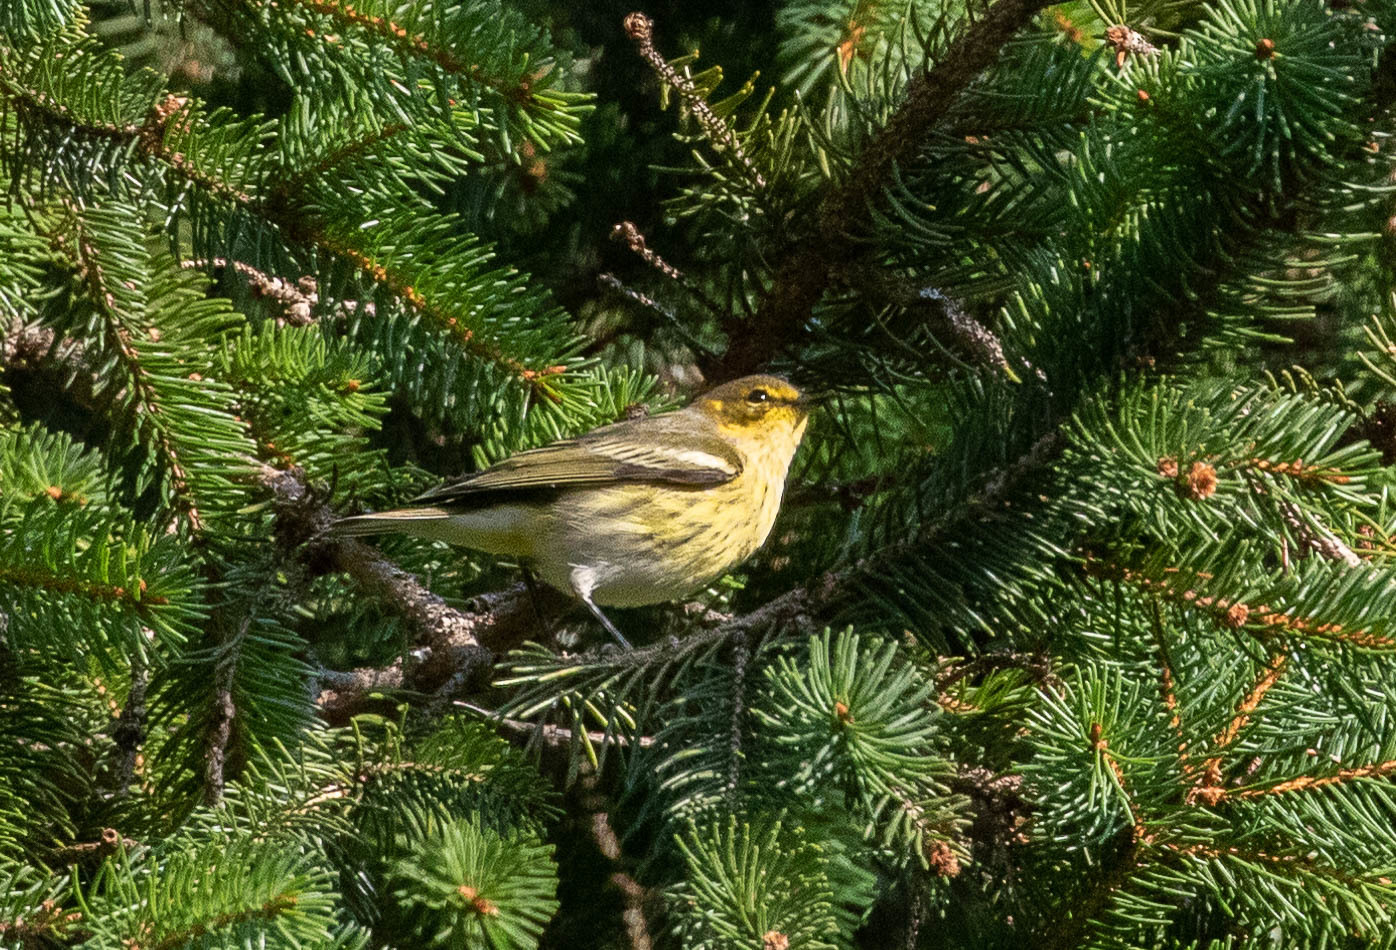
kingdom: Animalia
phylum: Chordata
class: Aves
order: Passeriformes
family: Parulidae
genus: Setophaga
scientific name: Setophaga tigrina
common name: Cape may warbler
